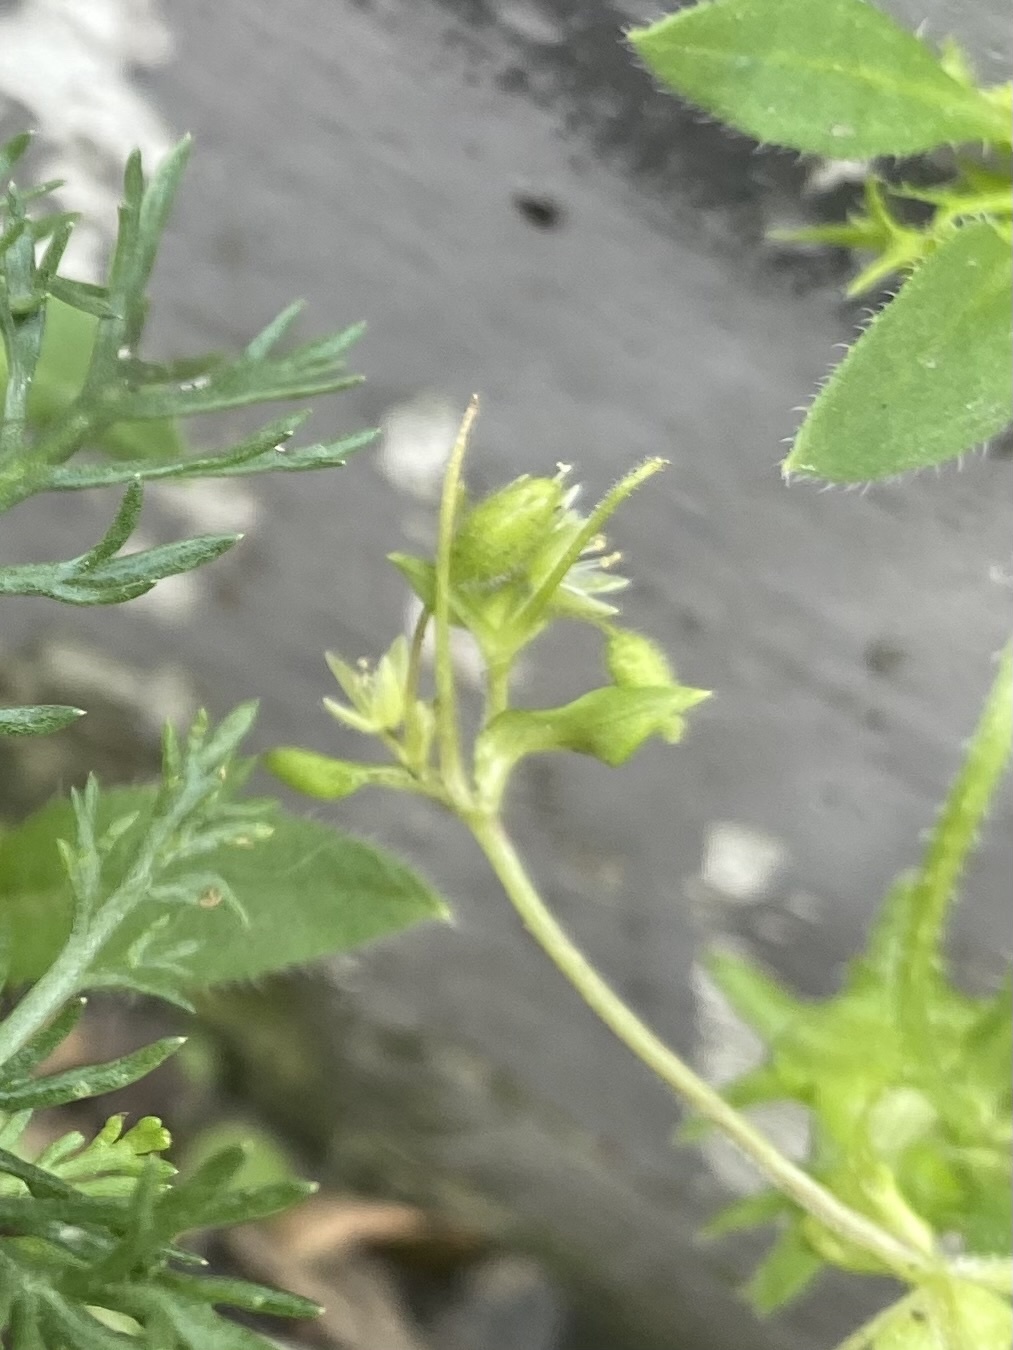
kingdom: Plantae
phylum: Tracheophyta
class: Magnoliopsida
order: Boraginales
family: Boraginaceae
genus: Asperugo
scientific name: Asperugo procumbens
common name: Madwort
